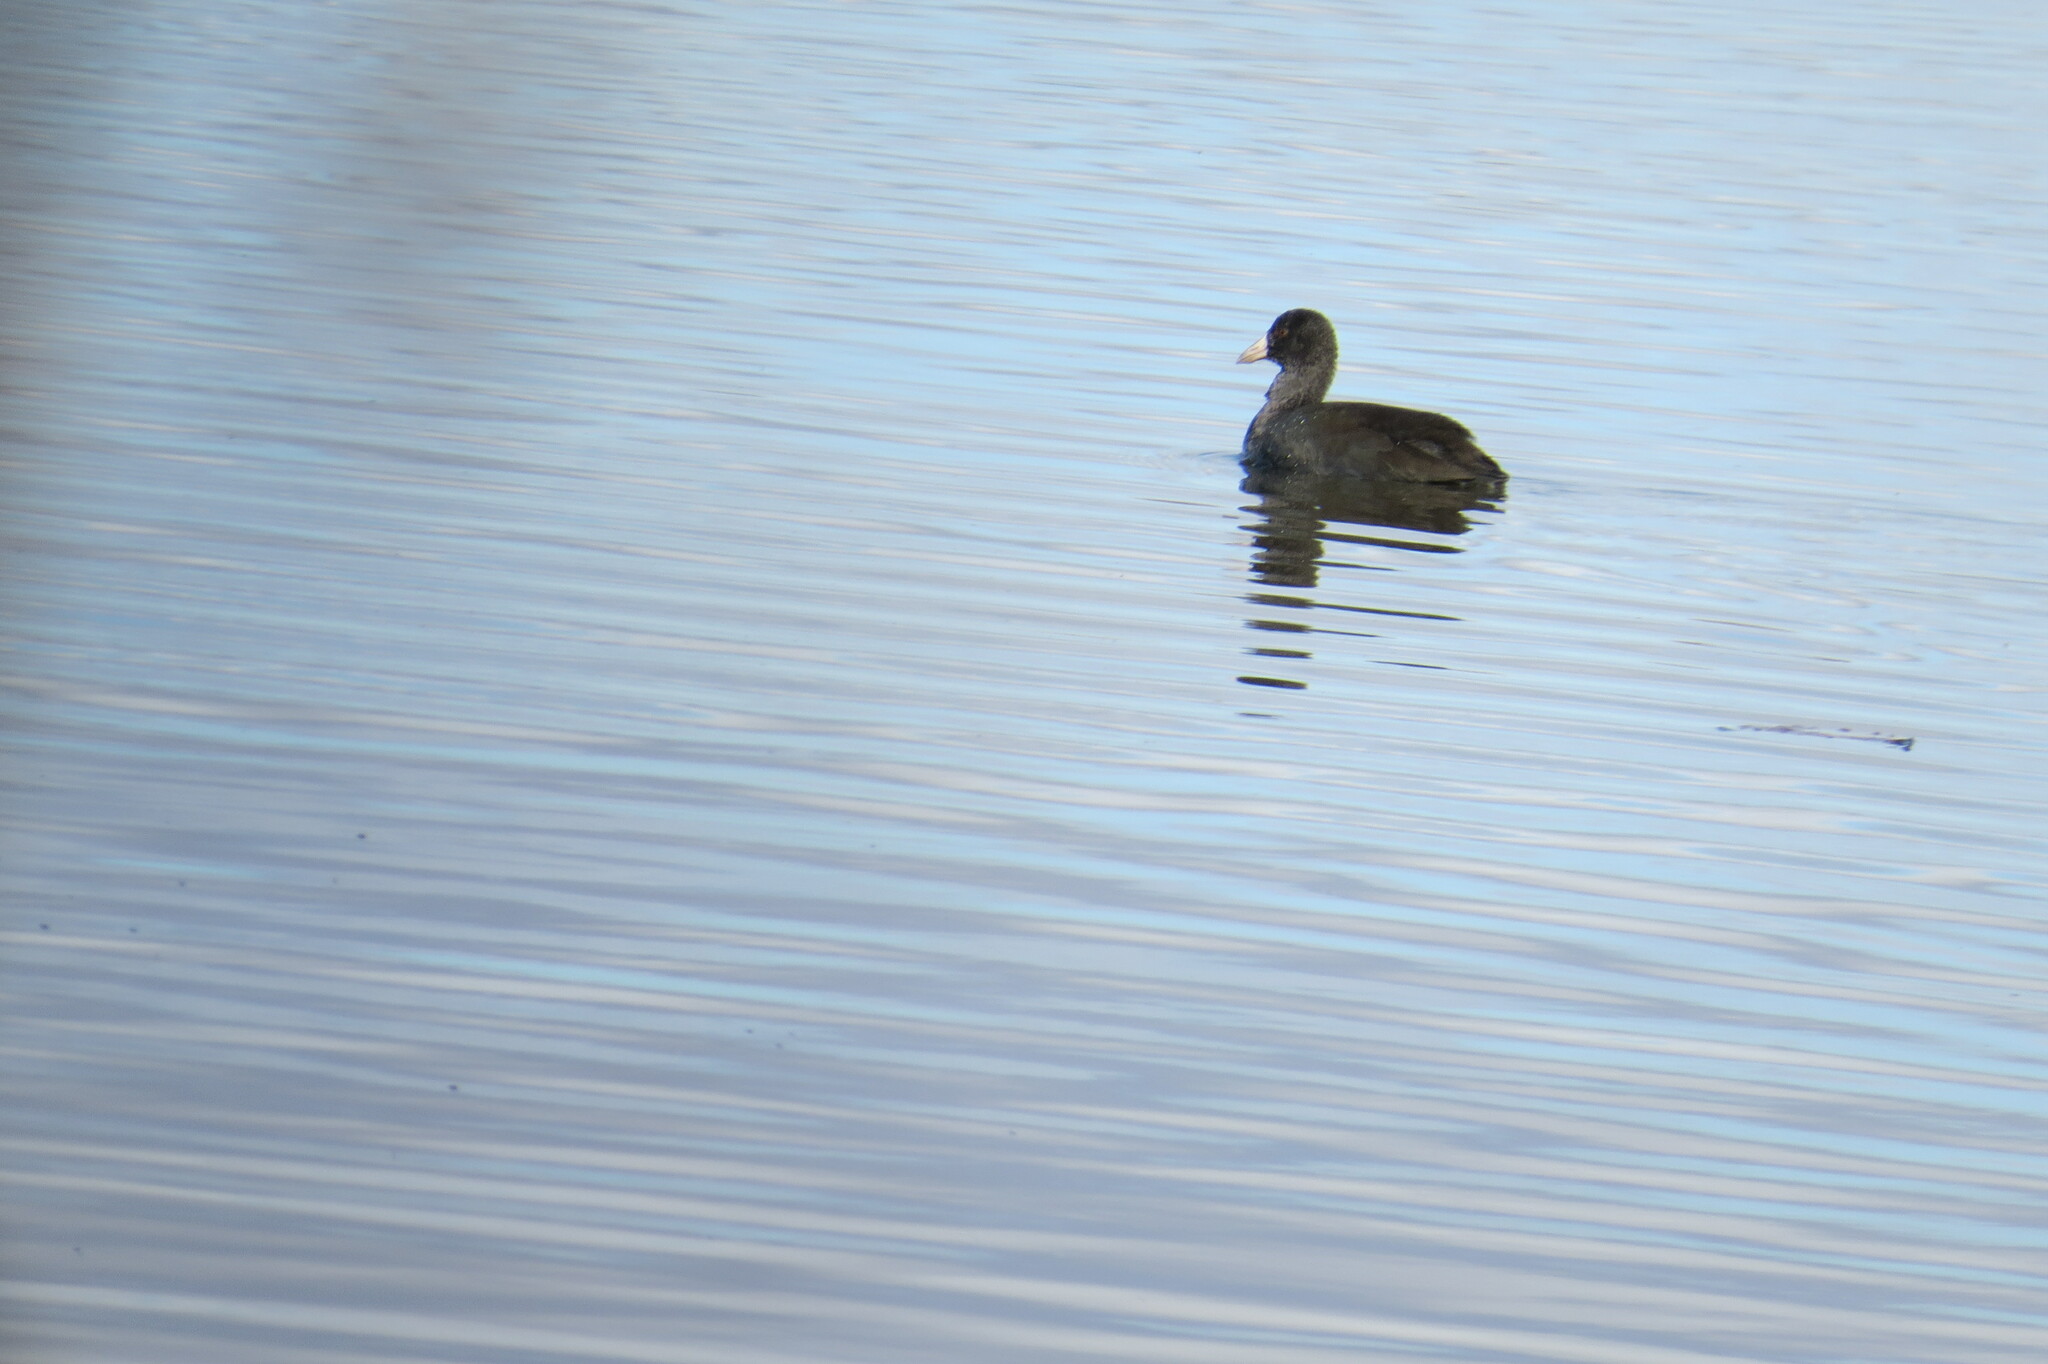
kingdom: Animalia
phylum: Chordata
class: Aves
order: Gruiformes
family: Rallidae
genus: Fulica
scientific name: Fulica americana
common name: American coot
